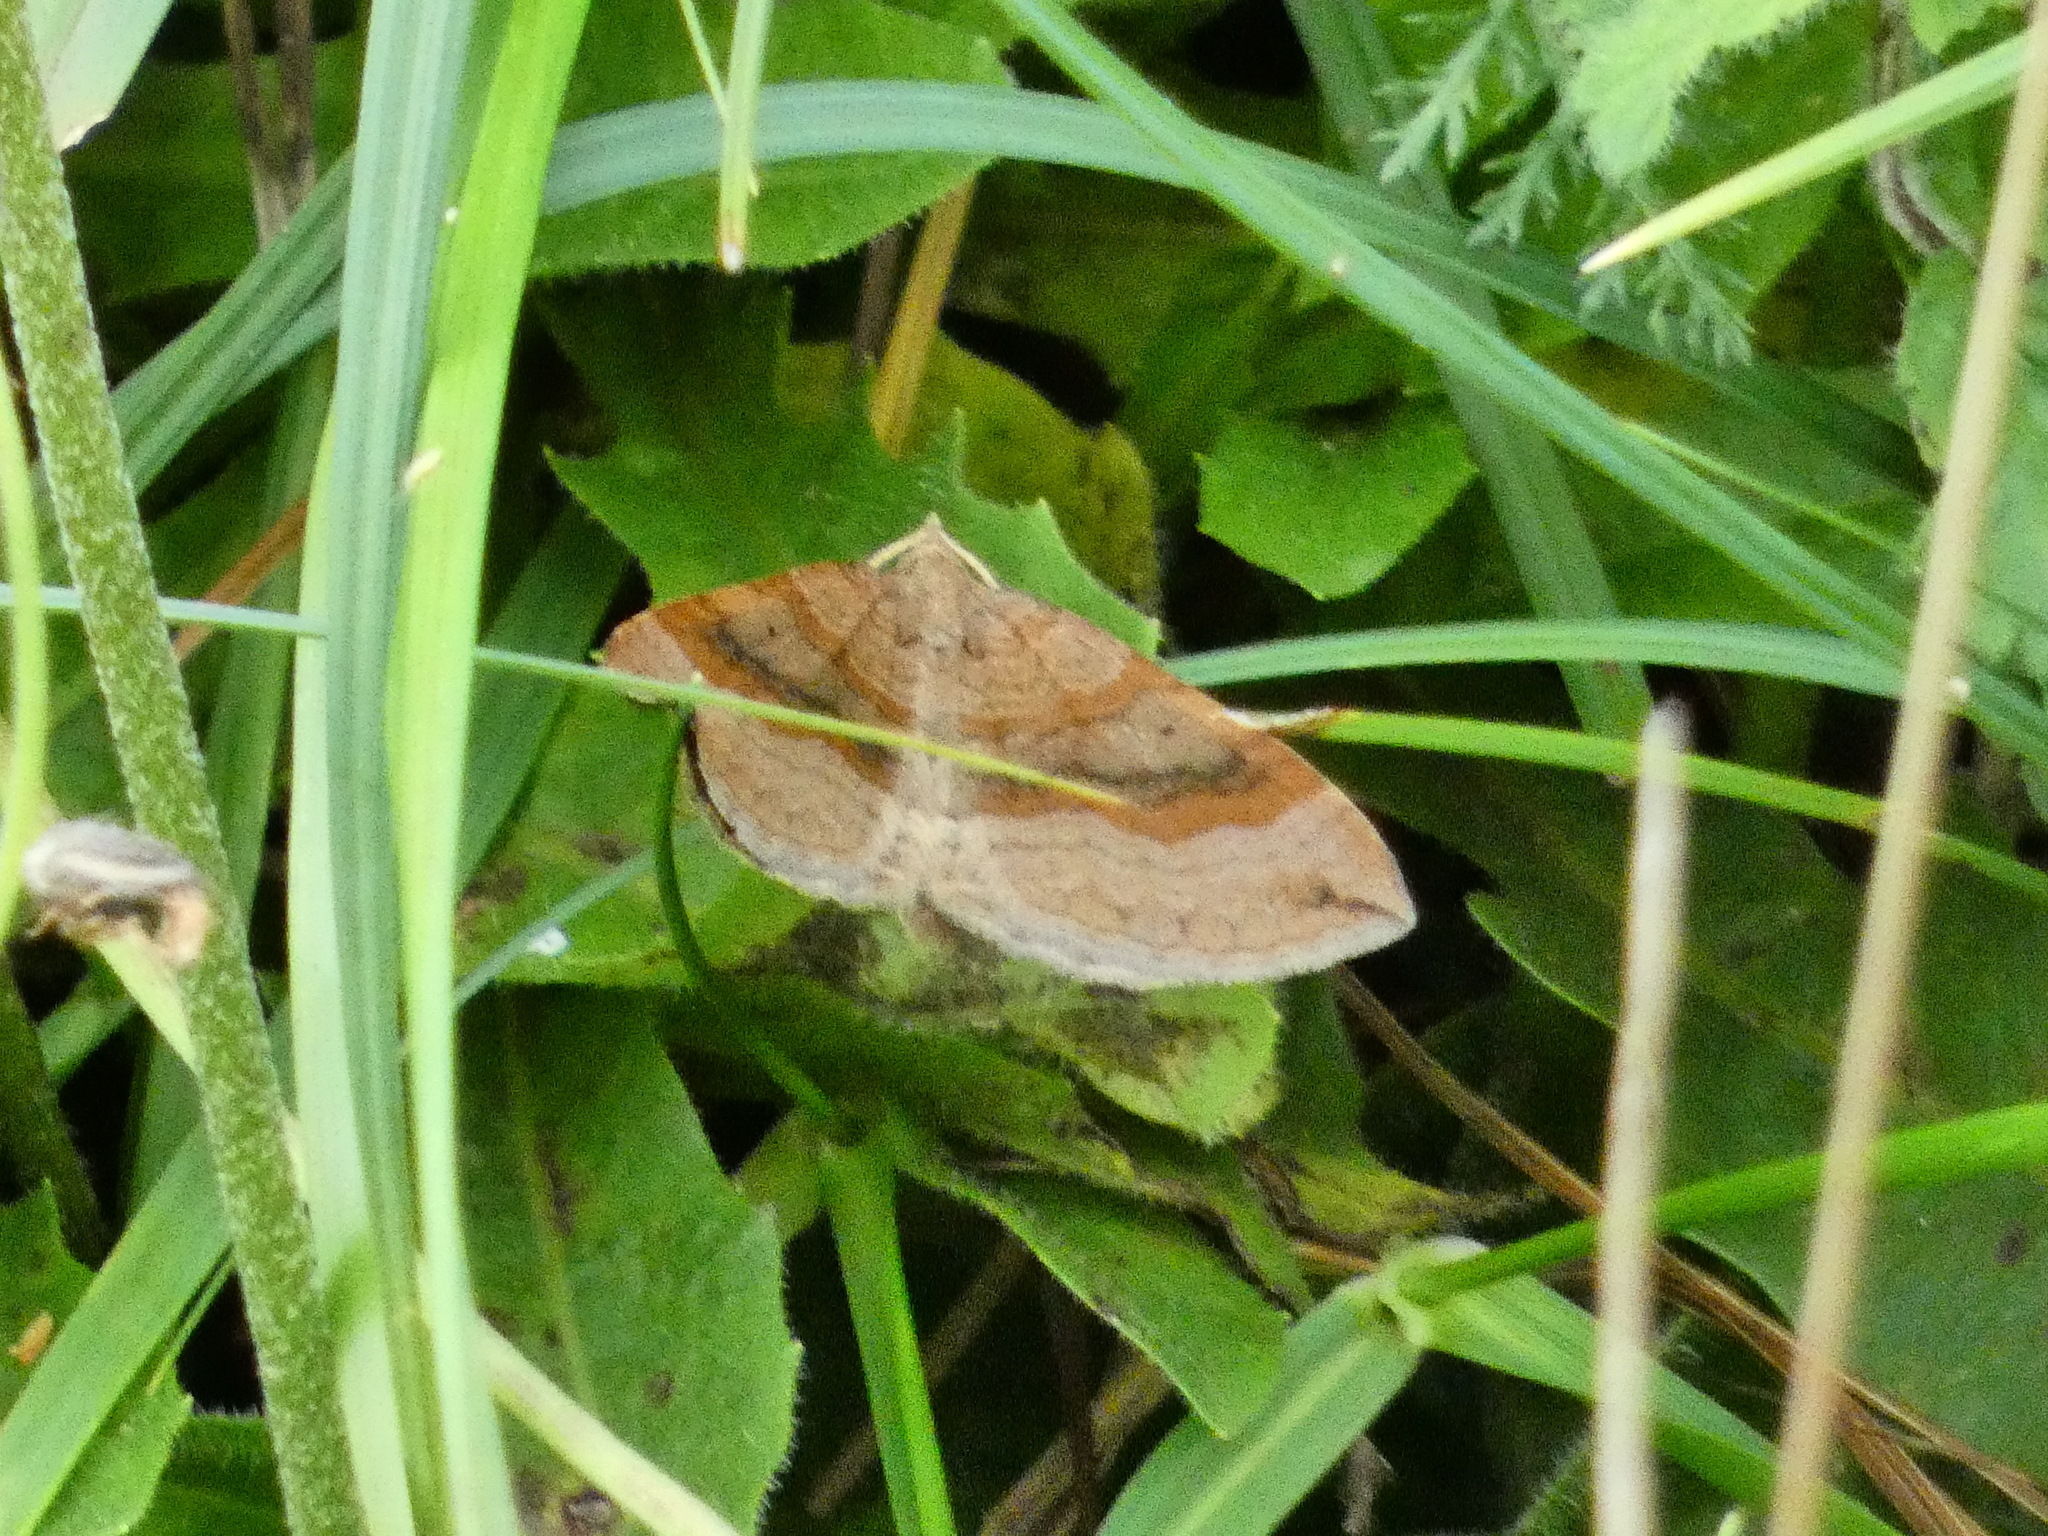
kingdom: Animalia
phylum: Arthropoda
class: Insecta
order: Lepidoptera
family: Geometridae
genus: Scotopteryx
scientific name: Scotopteryx chenopodiata
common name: Shaded broad-bar
